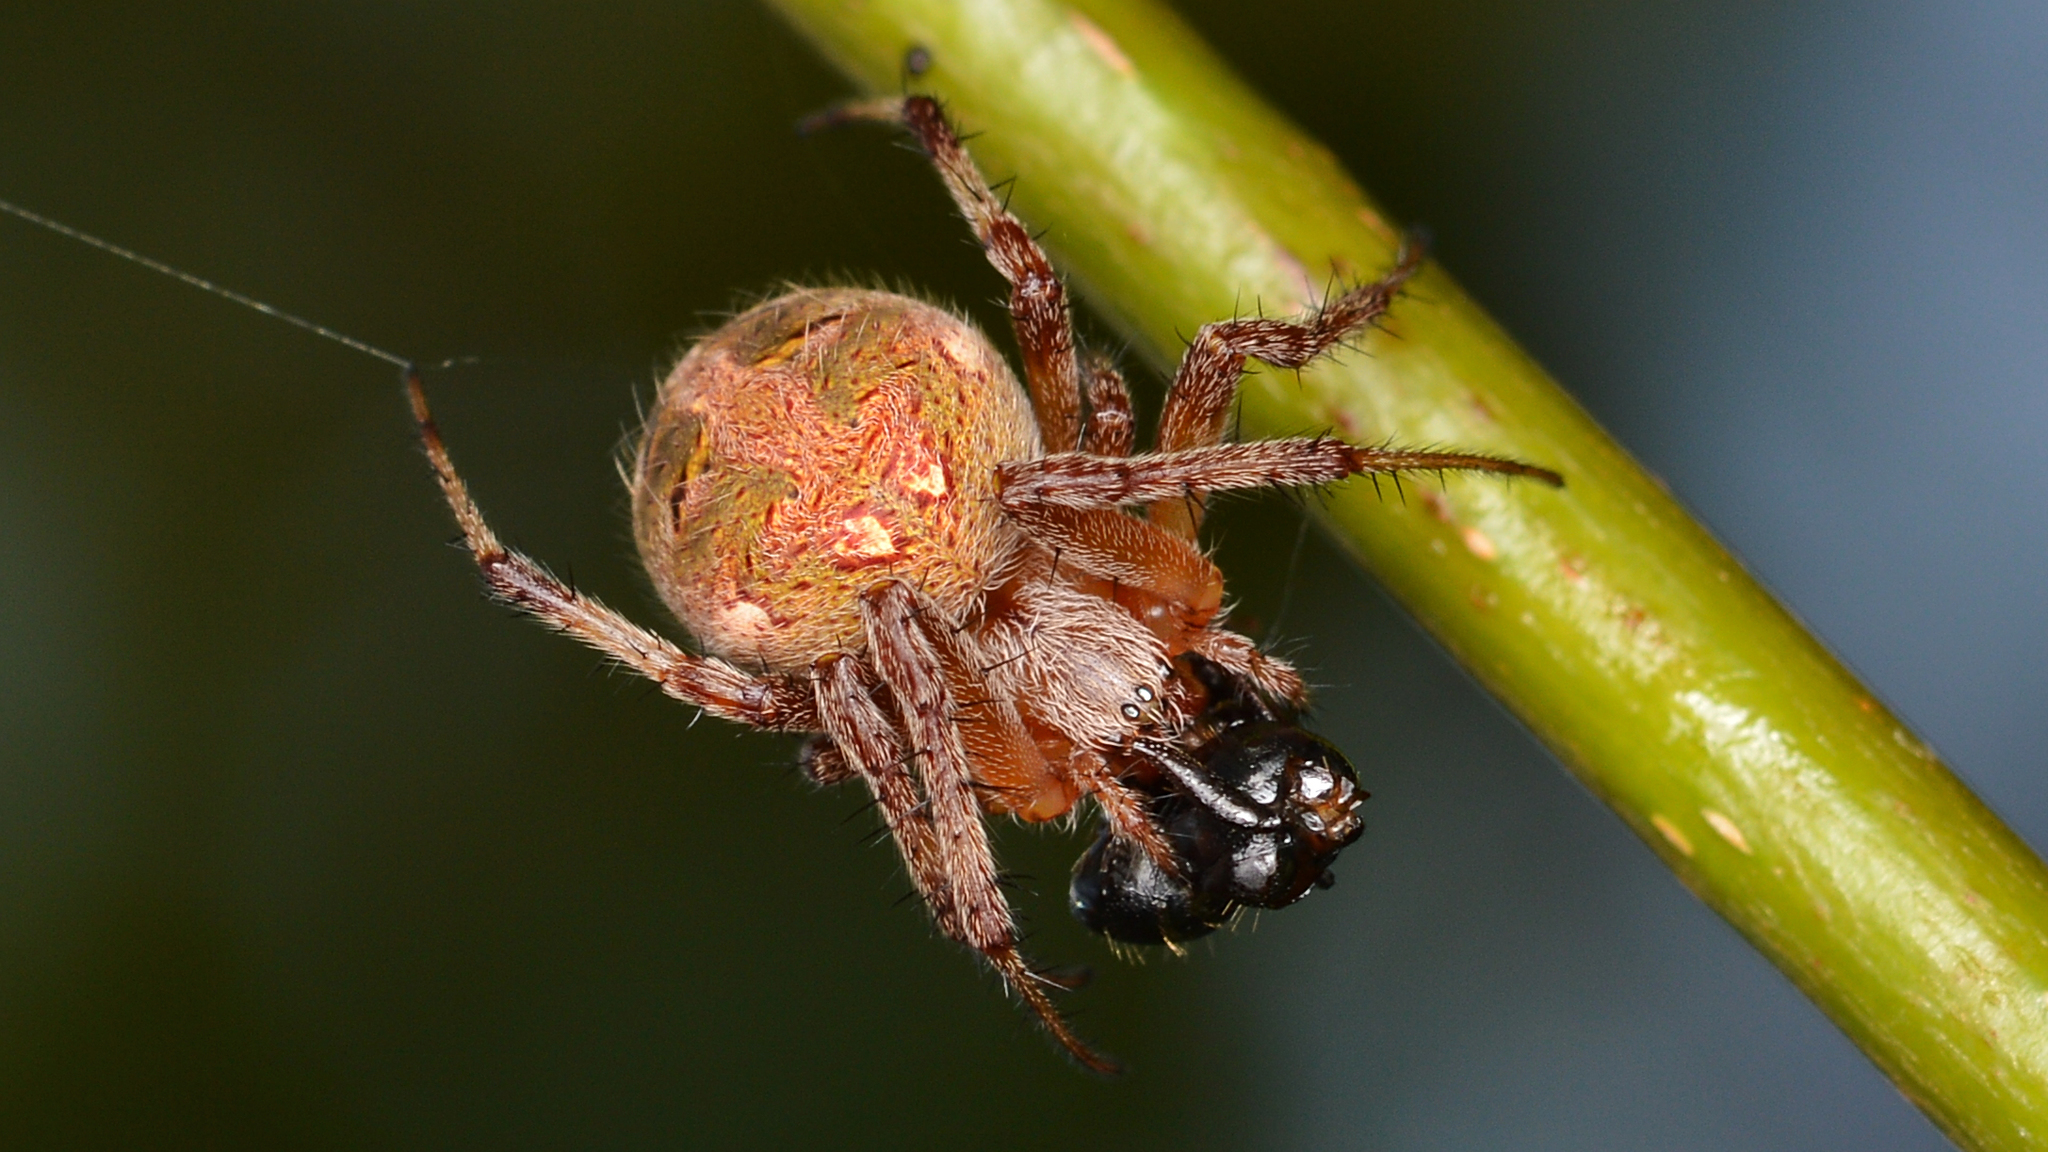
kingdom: Animalia
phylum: Arthropoda
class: Arachnida
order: Araneae
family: Araneidae
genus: Neoscona
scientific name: Neoscona arabesca
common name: Orb weavers
